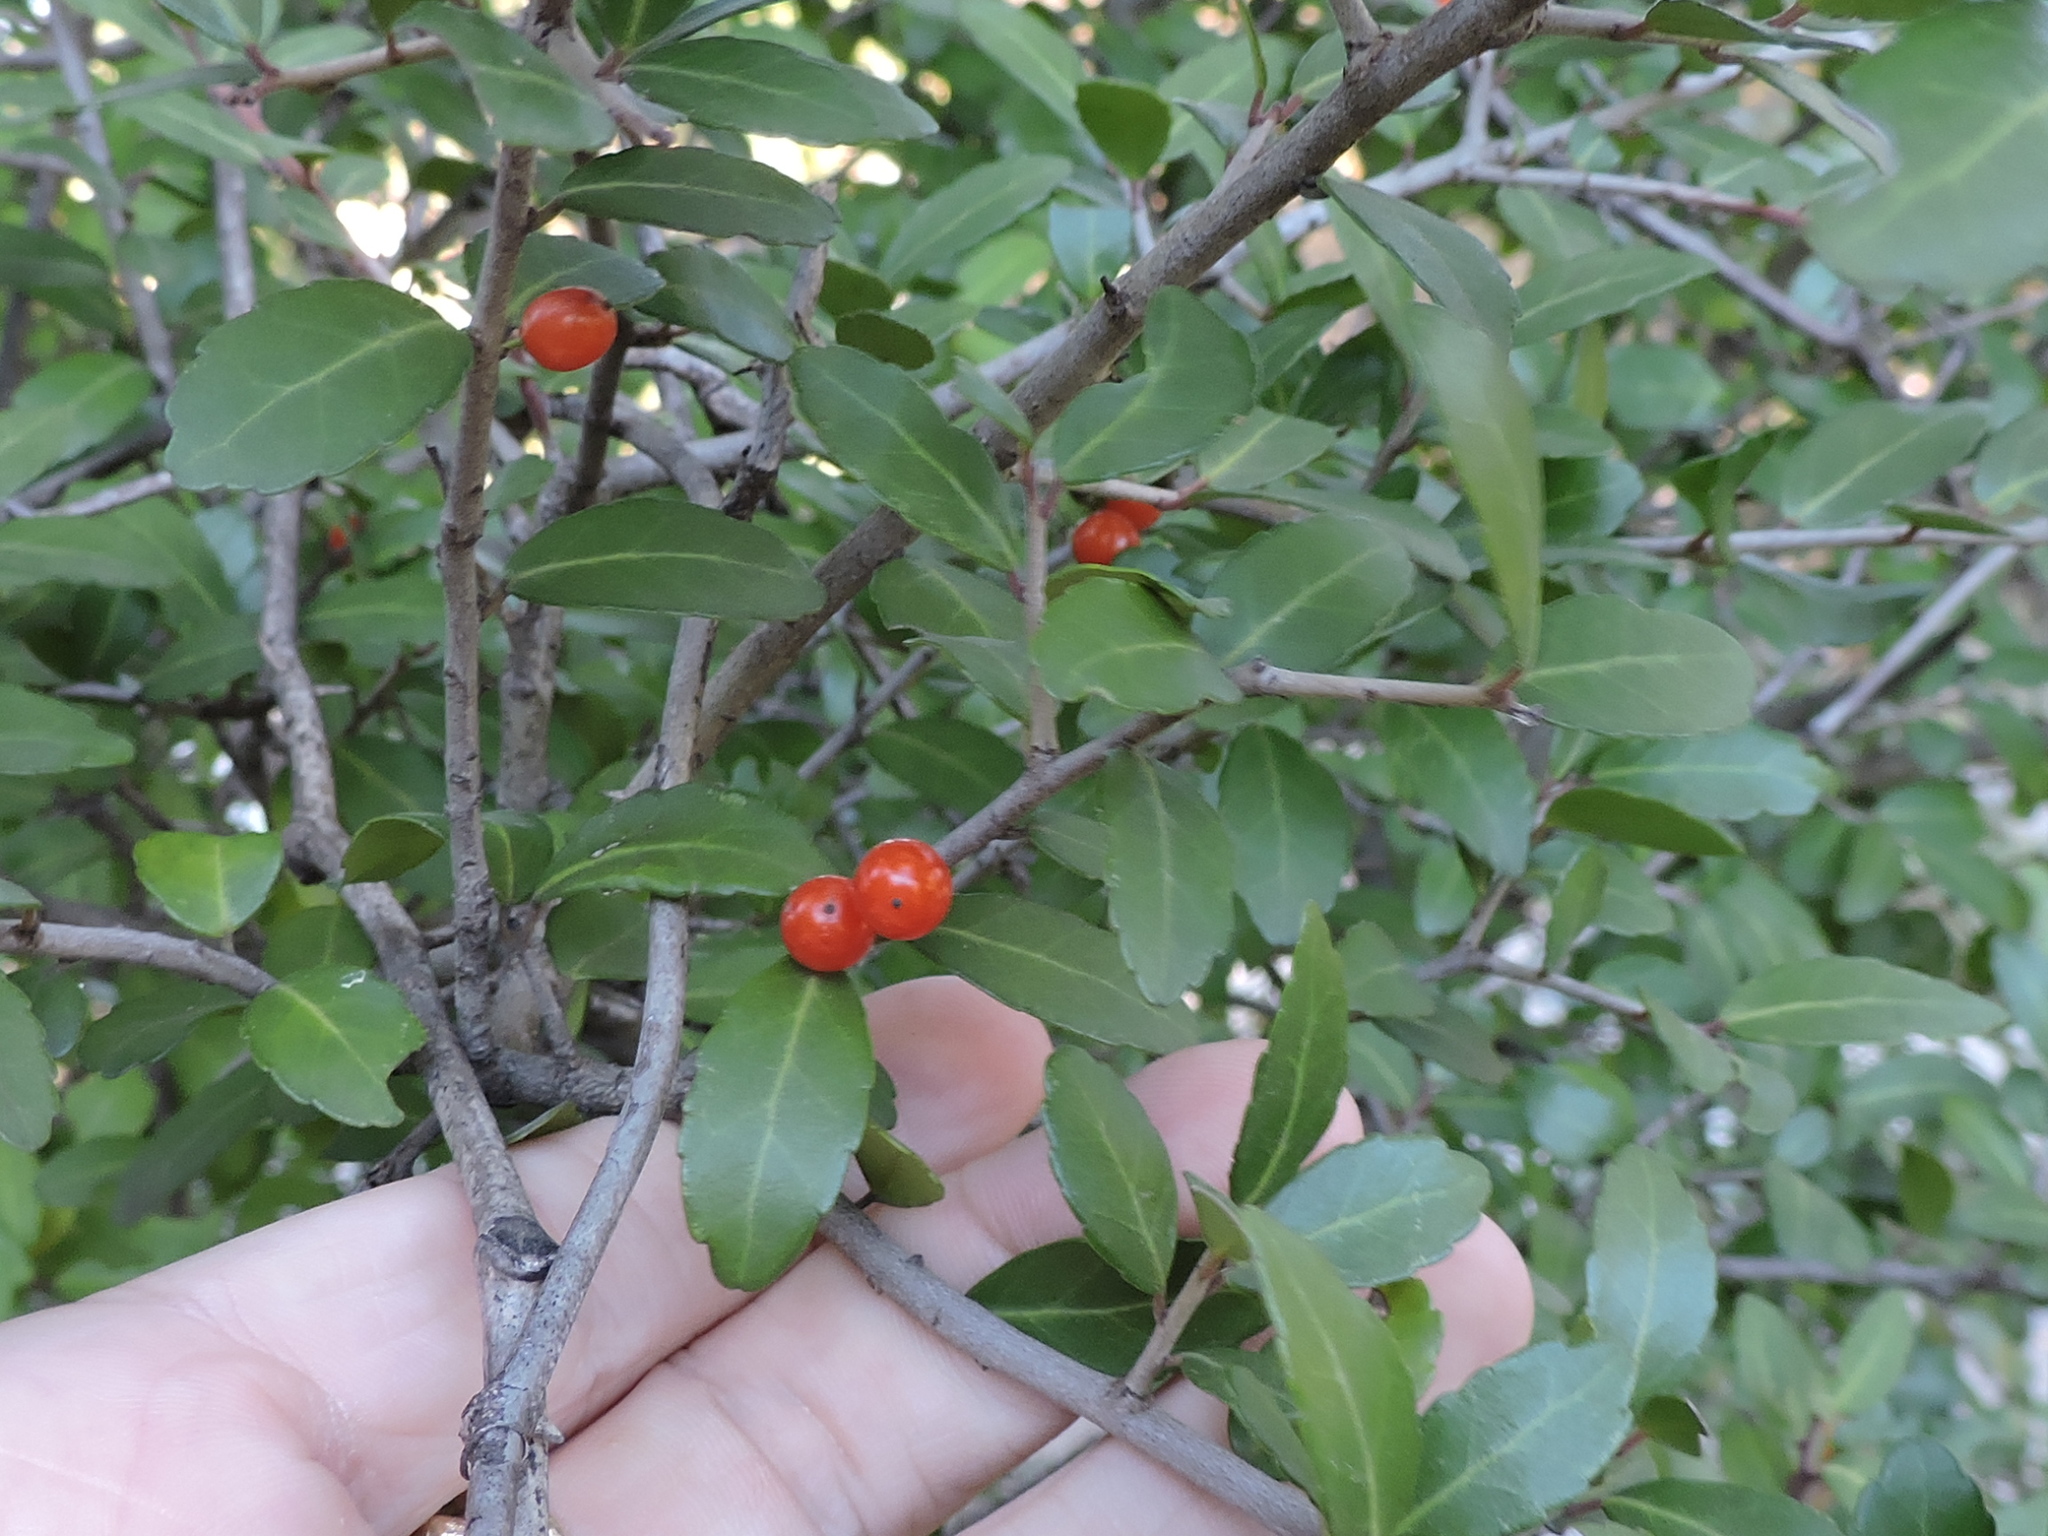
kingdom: Plantae
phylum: Tracheophyta
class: Magnoliopsida
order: Aquifoliales
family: Aquifoliaceae
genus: Ilex
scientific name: Ilex vomitoria
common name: Yaupon holly
